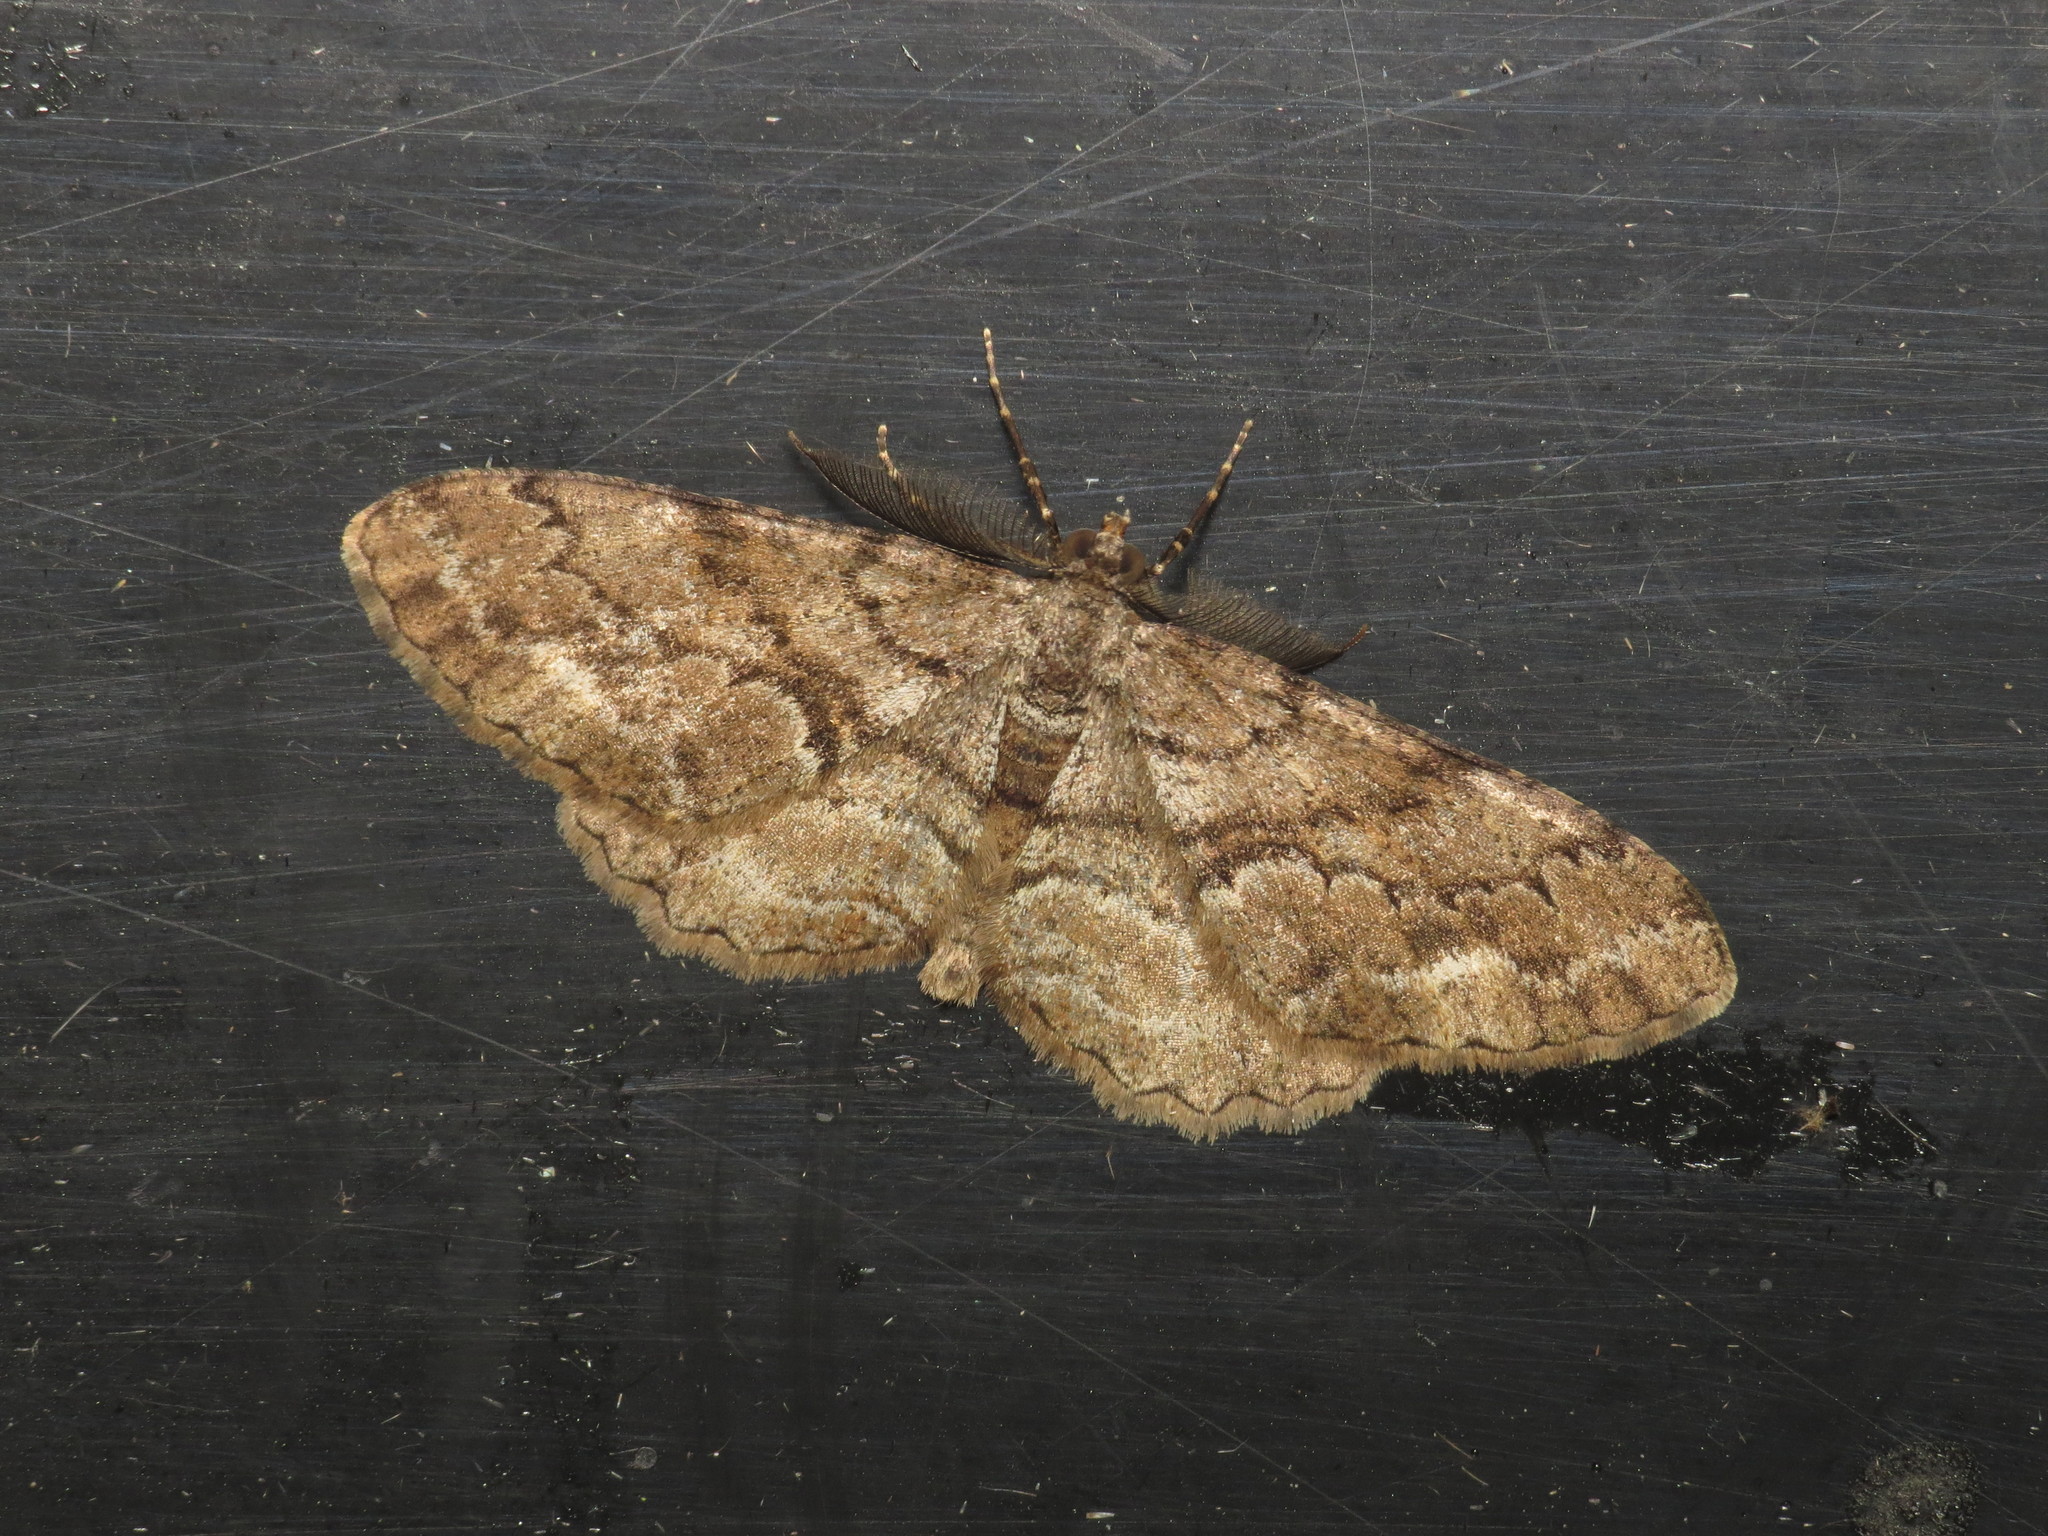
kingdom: Animalia
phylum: Arthropoda
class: Insecta
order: Lepidoptera
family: Geometridae
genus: Peribatodes
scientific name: Peribatodes secundaria
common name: Feathered beauty
